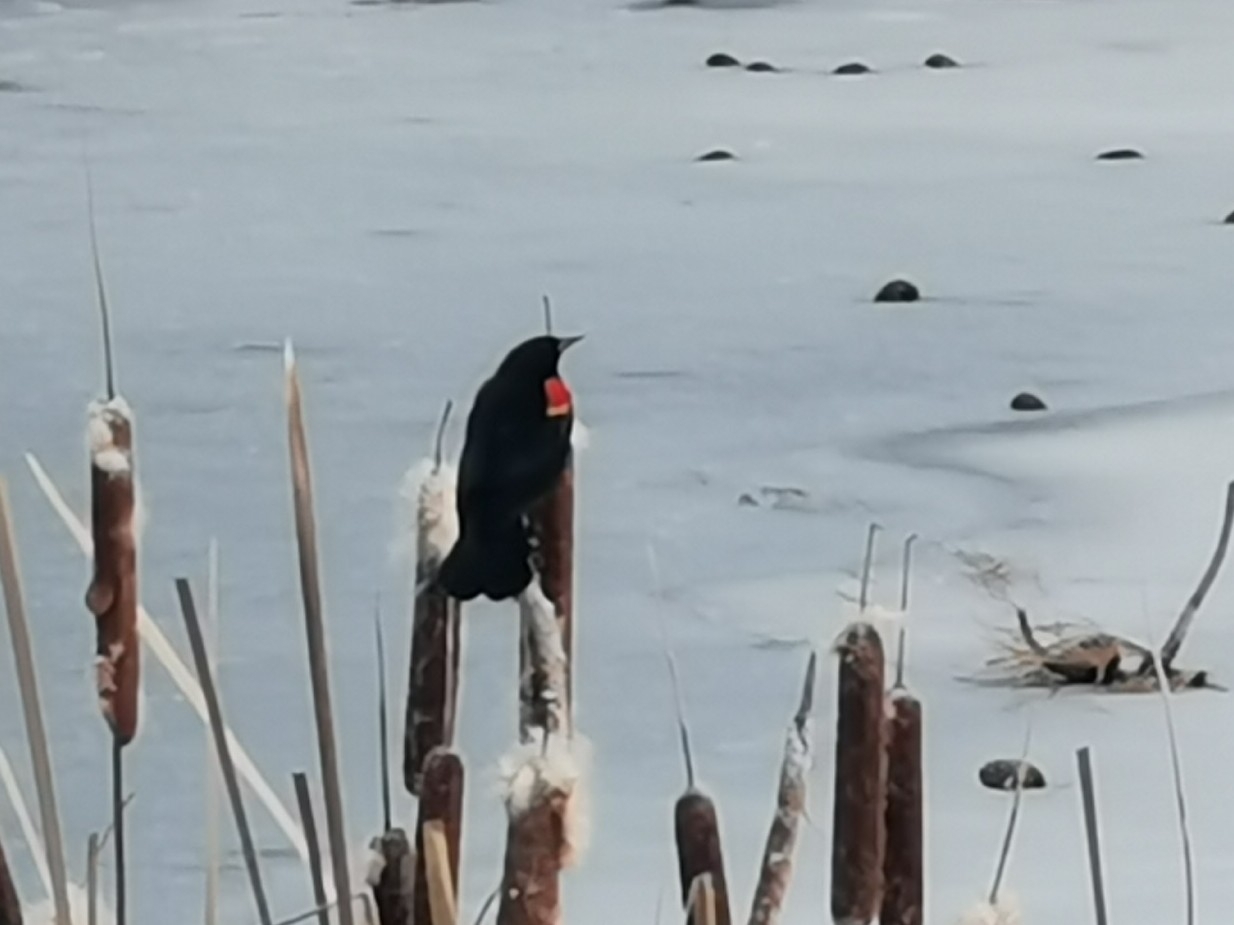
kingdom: Animalia
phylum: Chordata
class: Aves
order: Passeriformes
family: Icteridae
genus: Agelaius
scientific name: Agelaius phoeniceus
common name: Red-winged blackbird
